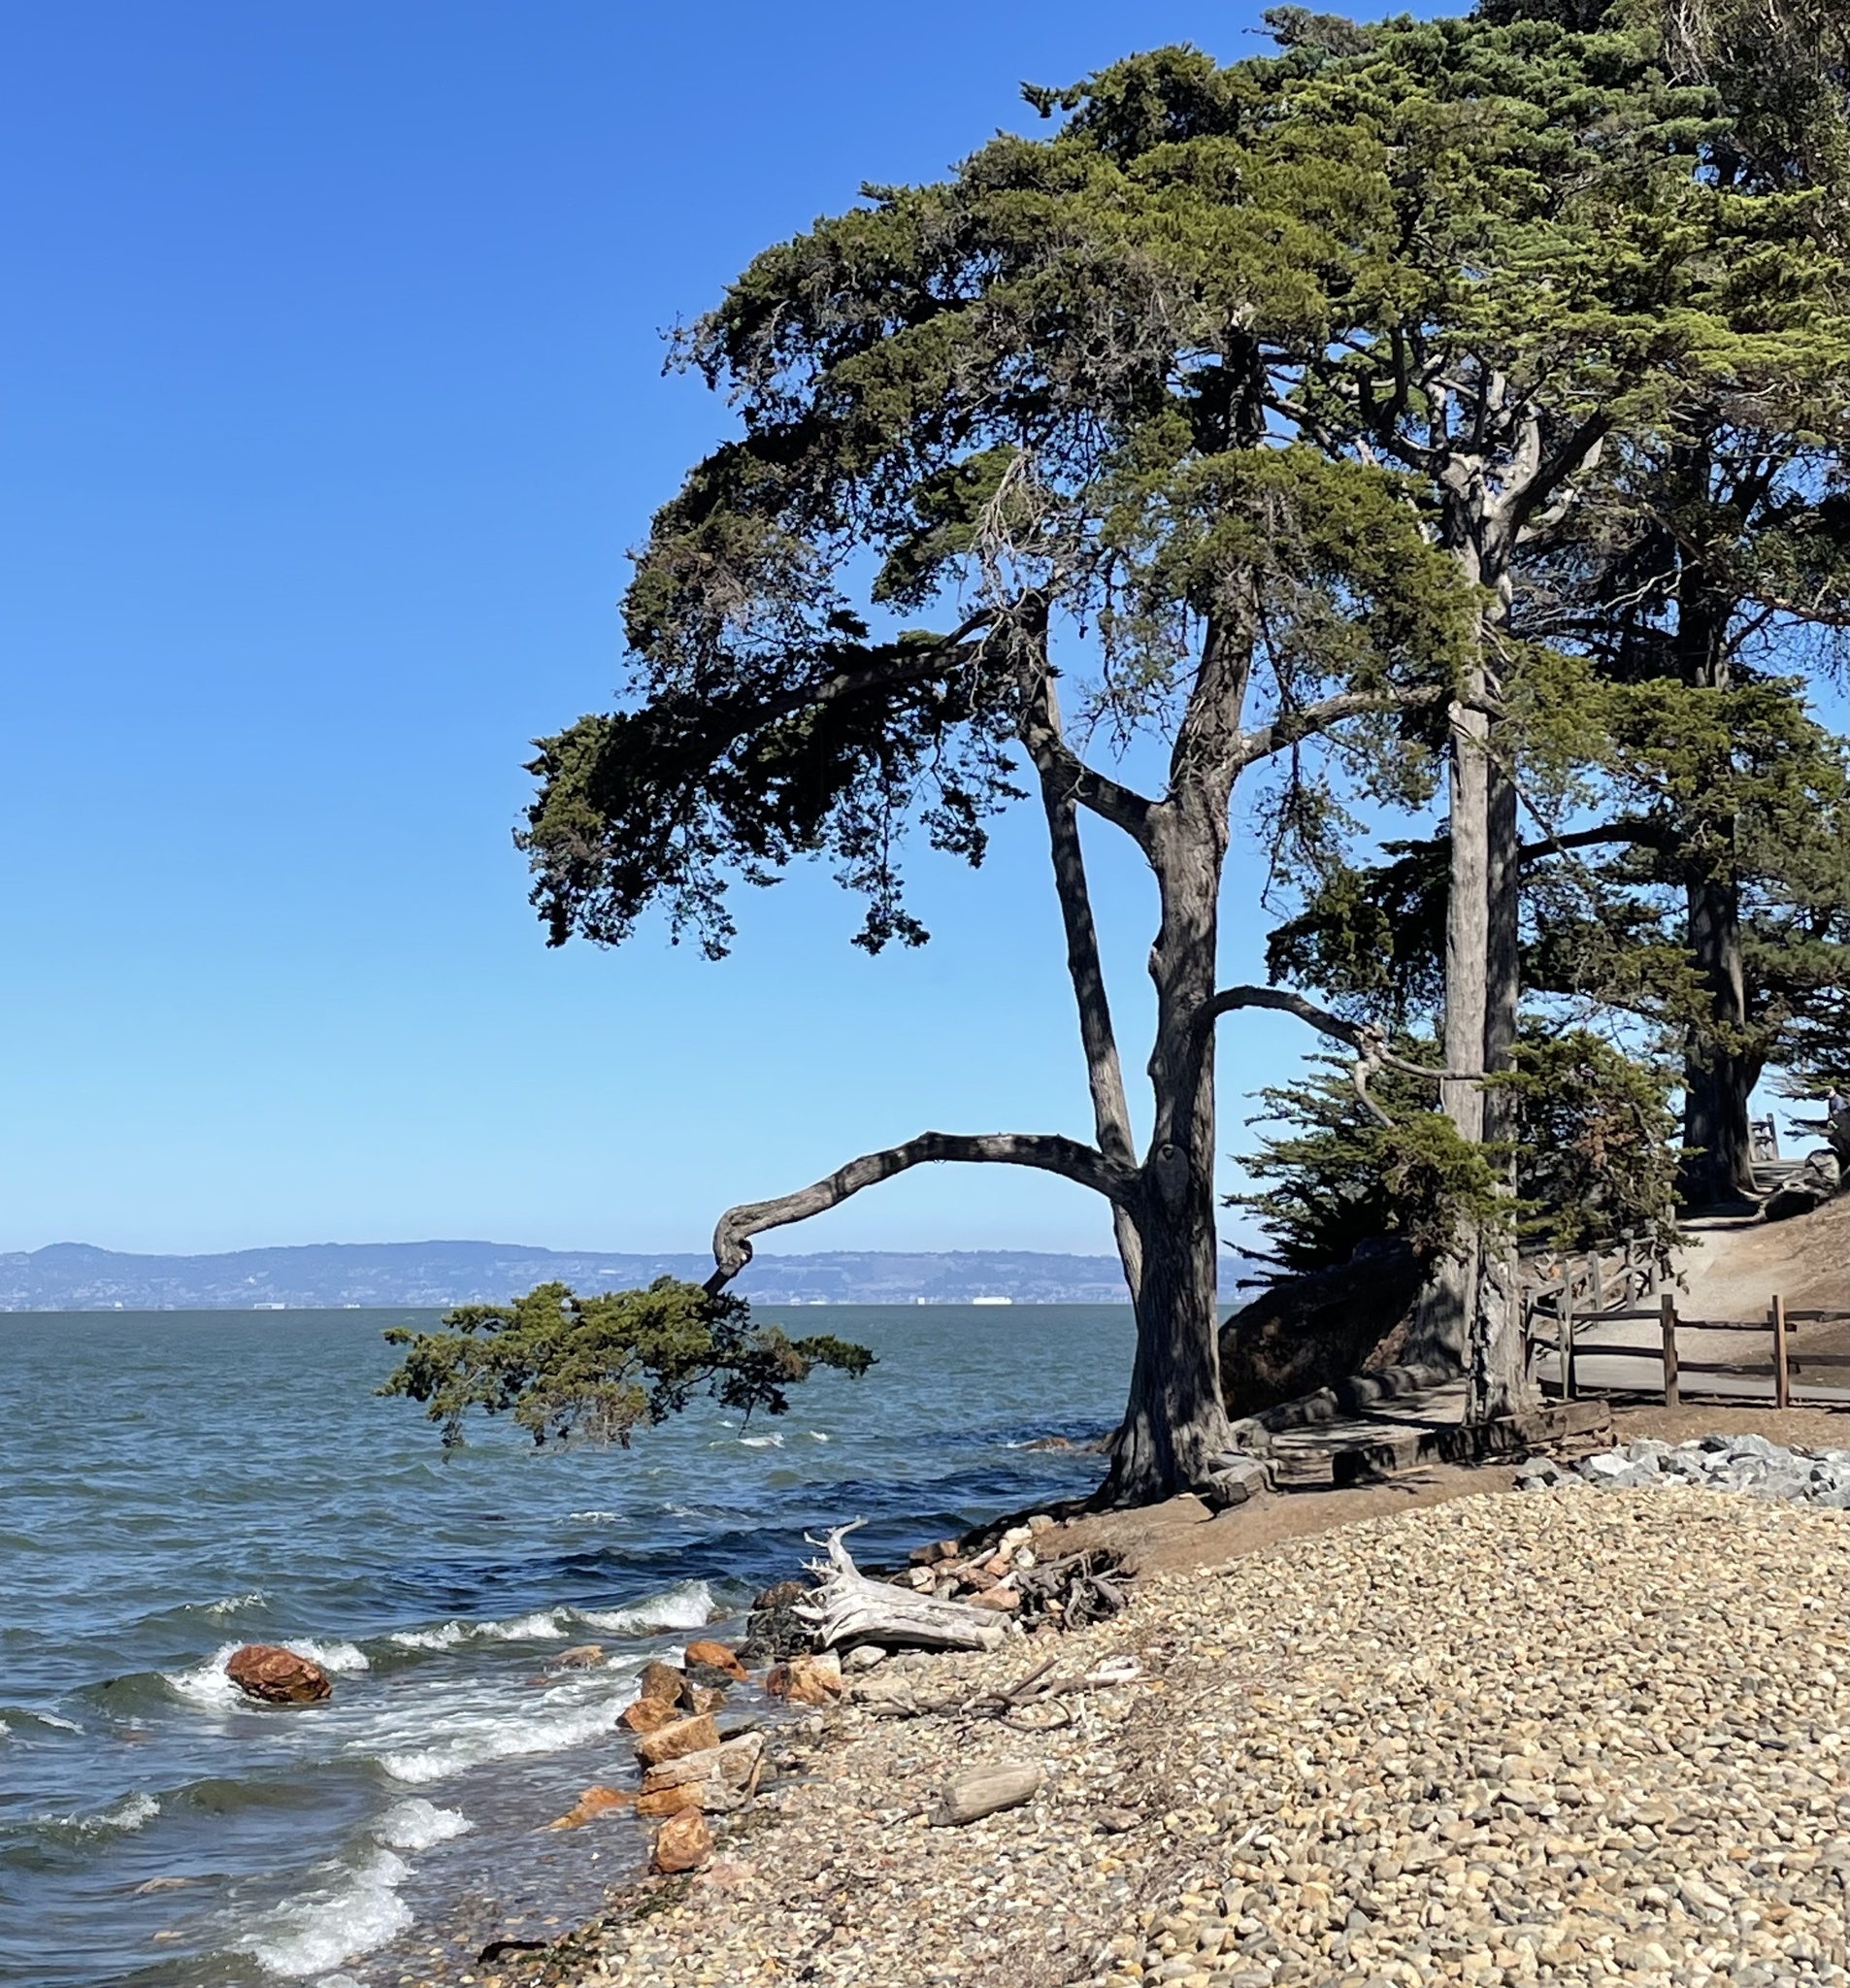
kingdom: Plantae
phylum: Tracheophyta
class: Pinopsida
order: Pinales
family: Cupressaceae
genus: Cupressus
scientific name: Cupressus macrocarpa
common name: Monterey cypress
